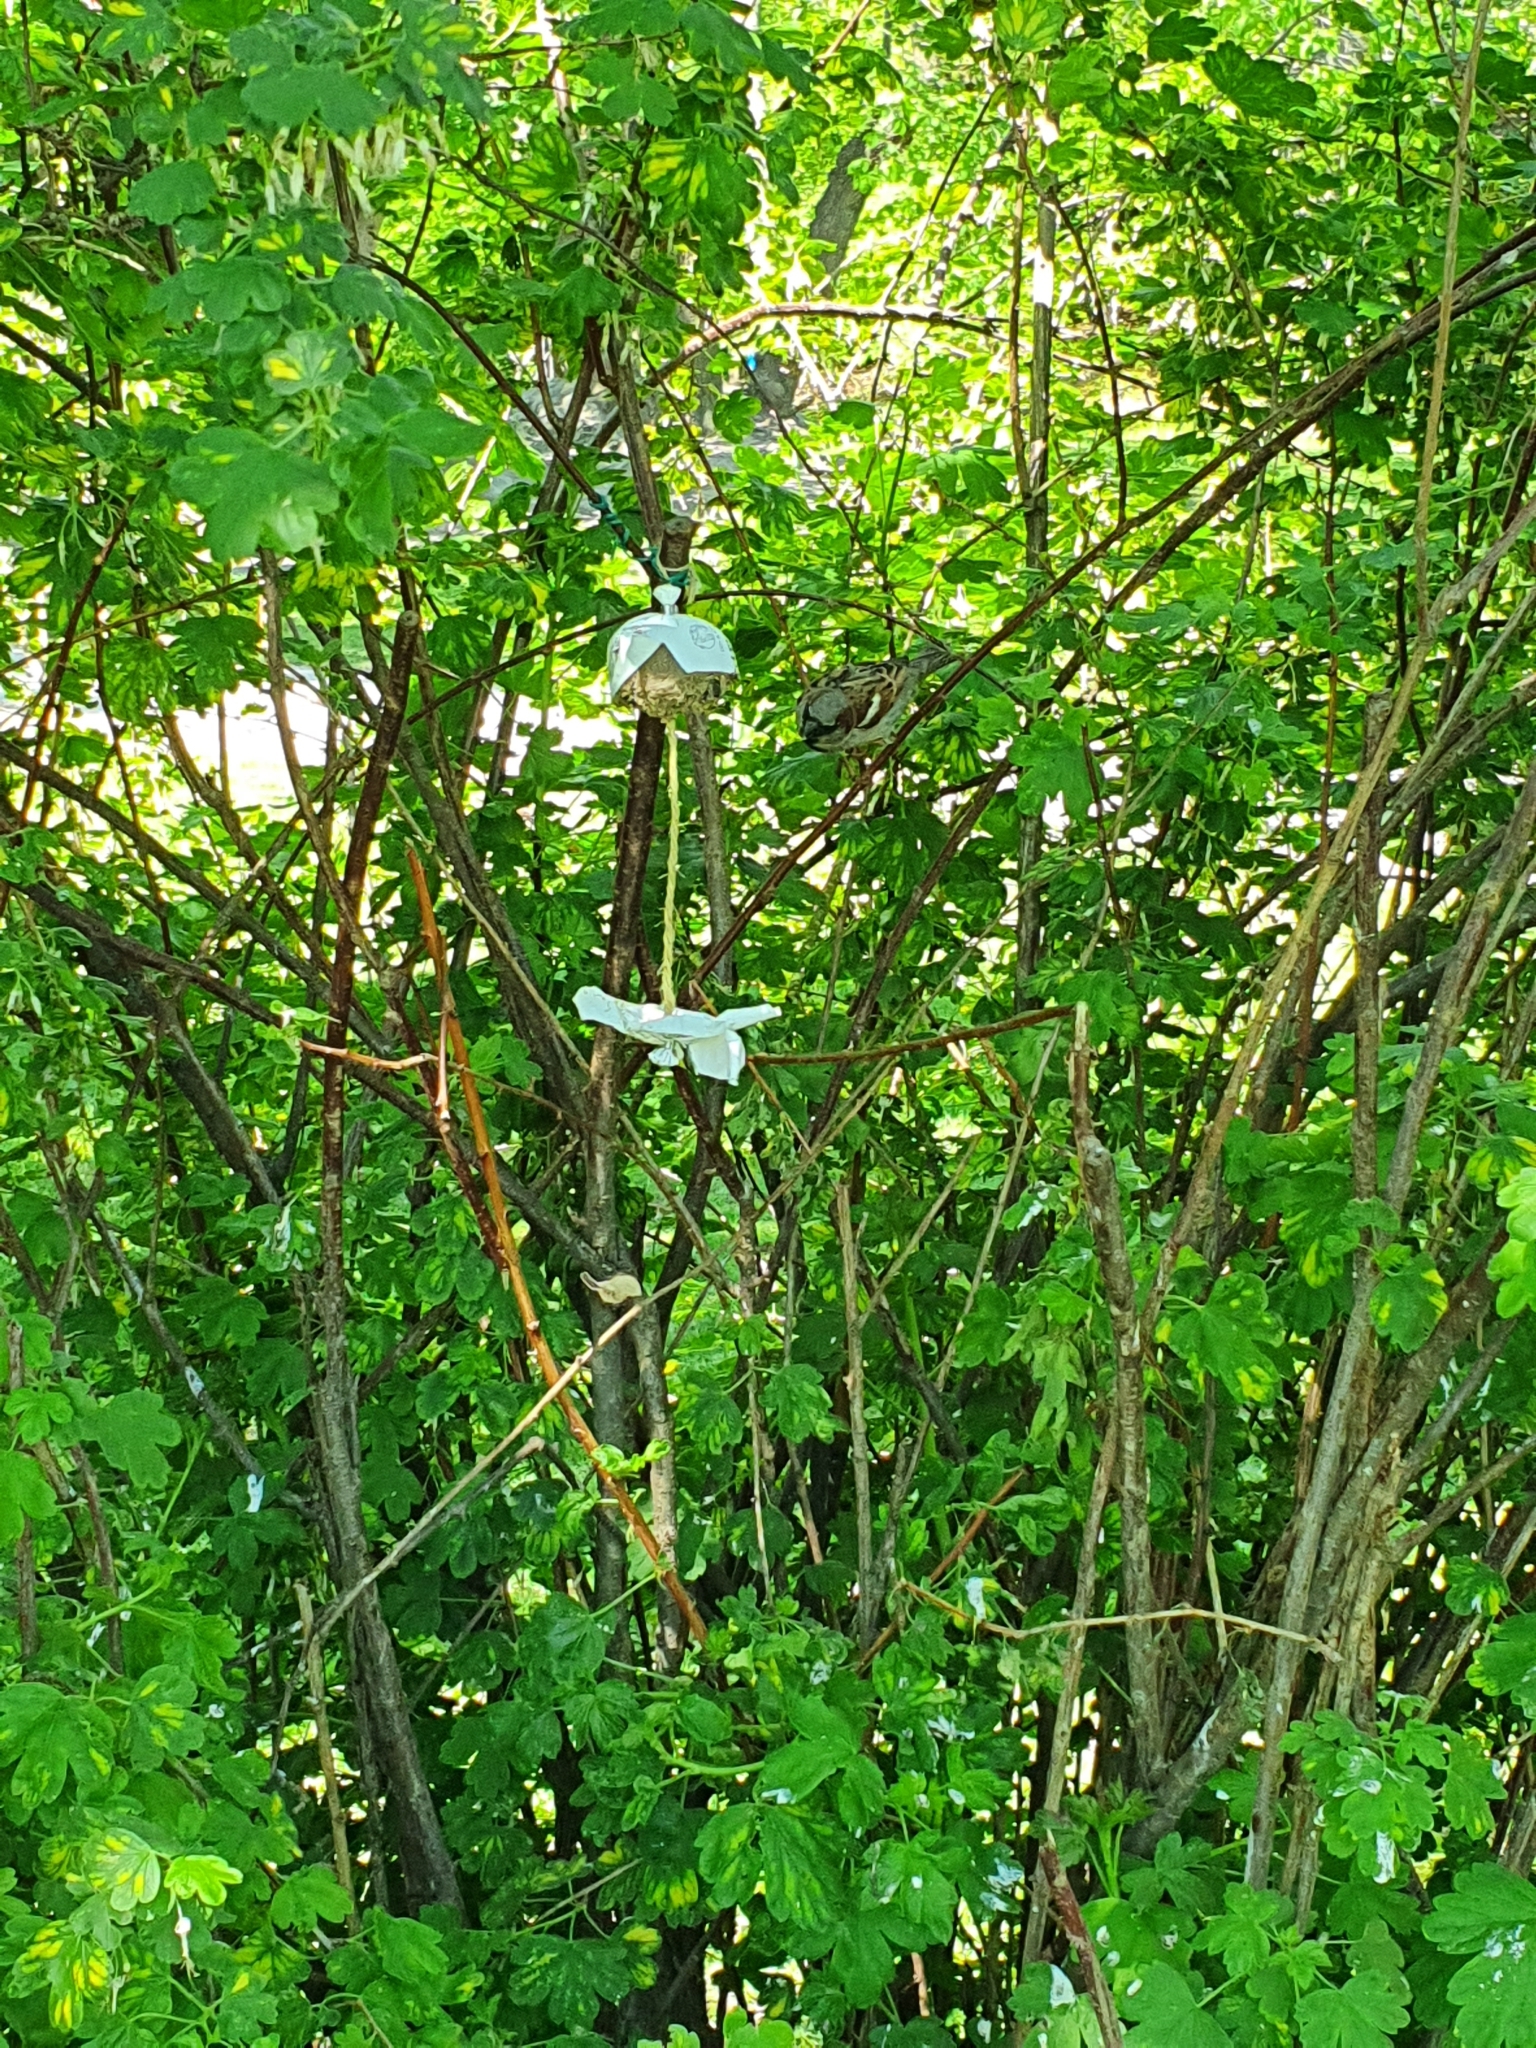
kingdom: Animalia
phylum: Chordata
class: Aves
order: Passeriformes
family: Passeridae
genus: Passer
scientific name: Passer domesticus
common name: House sparrow
